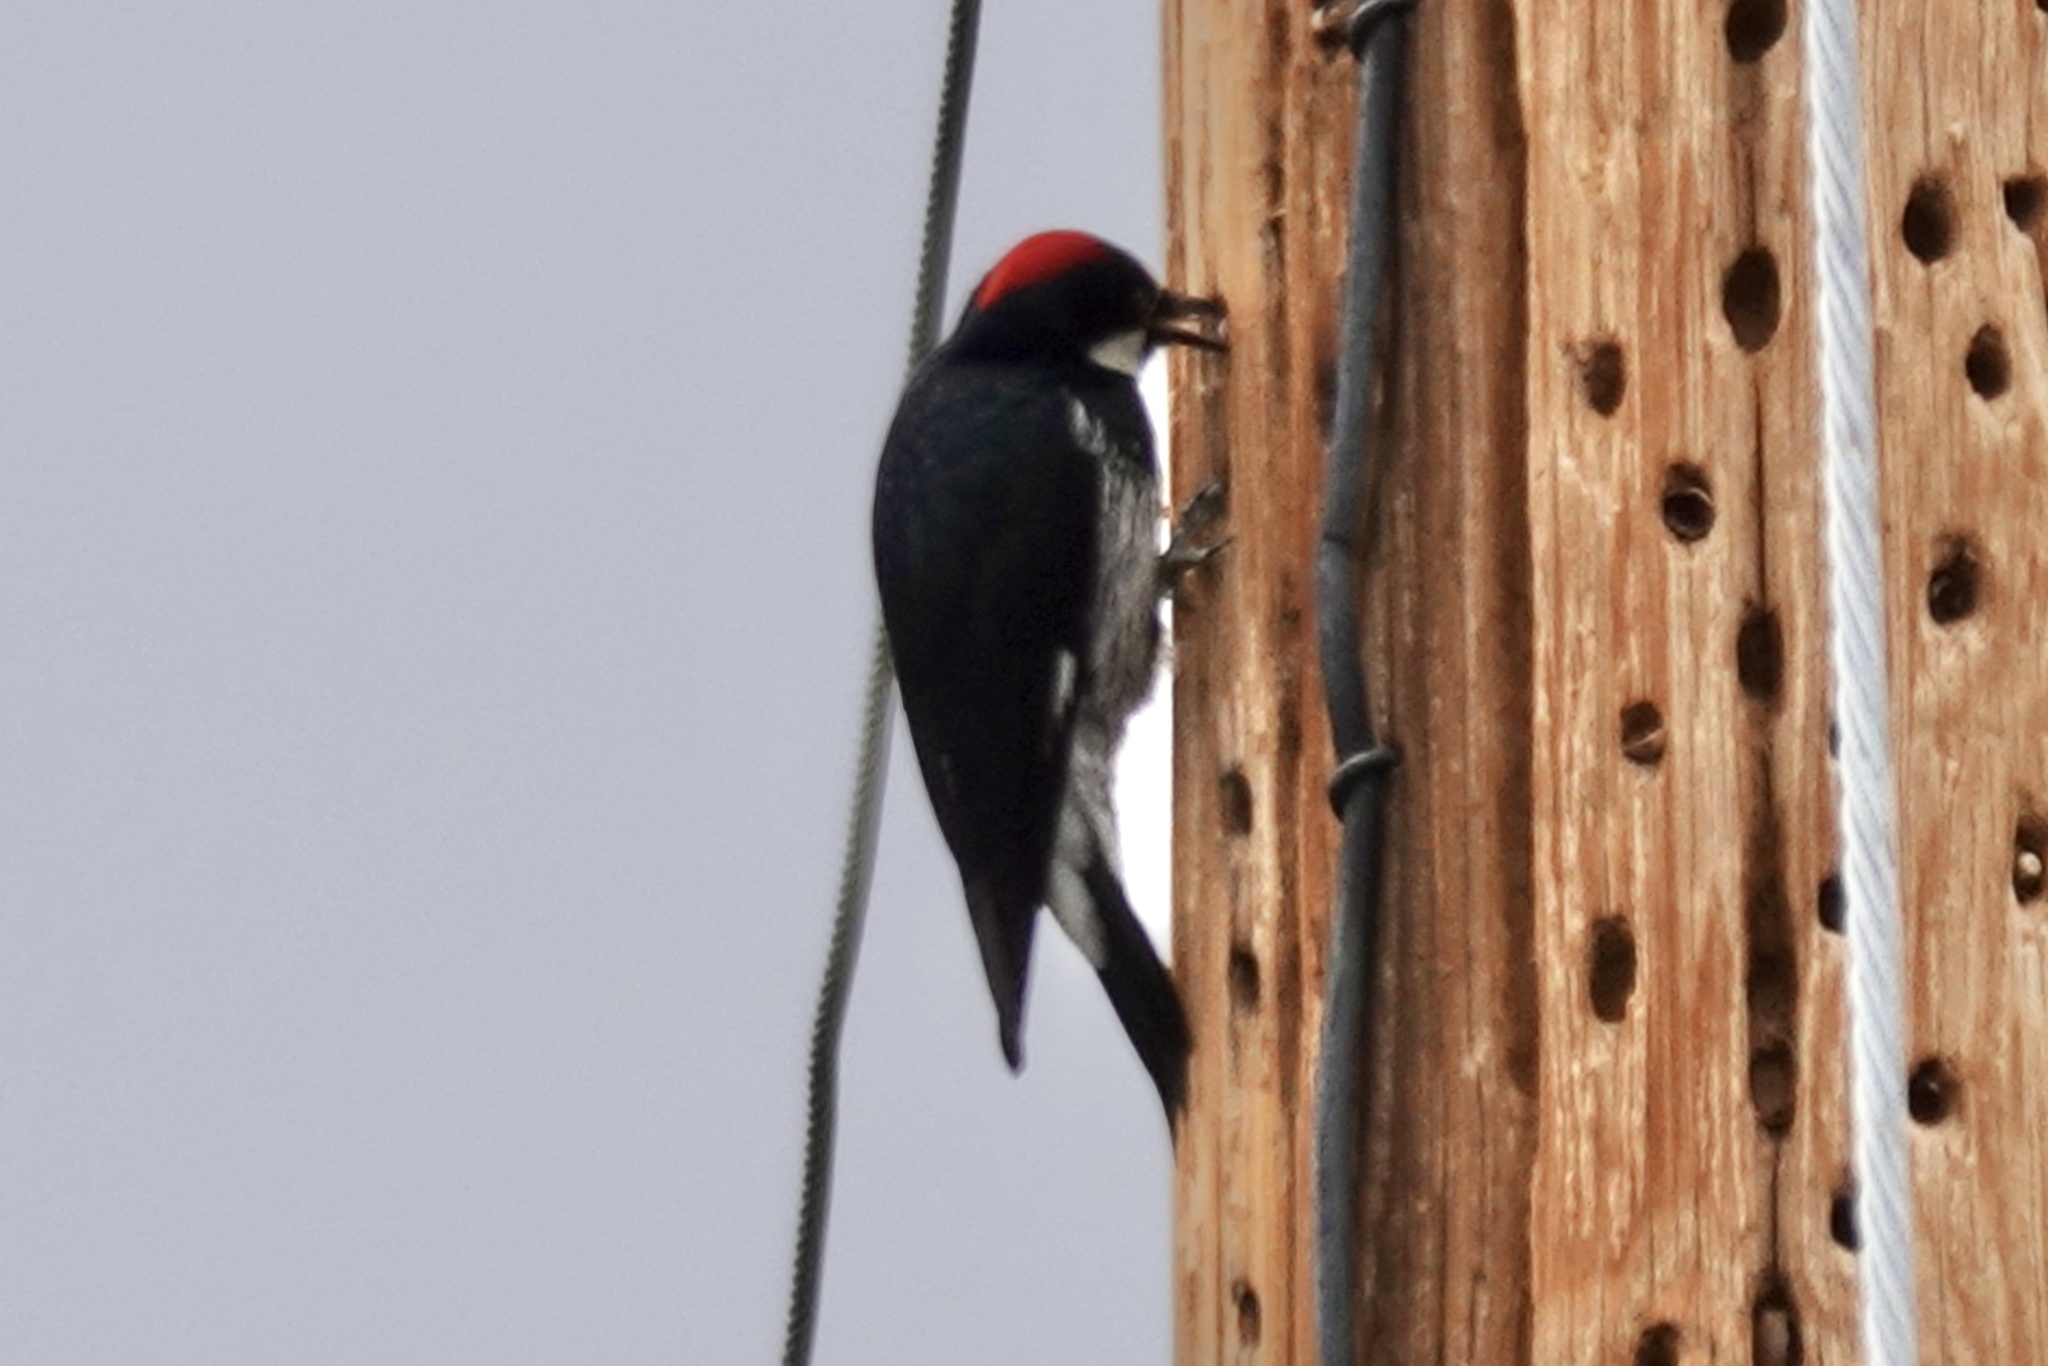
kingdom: Animalia
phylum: Chordata
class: Aves
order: Piciformes
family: Picidae
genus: Melanerpes
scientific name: Melanerpes formicivorus
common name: Acorn woodpecker
